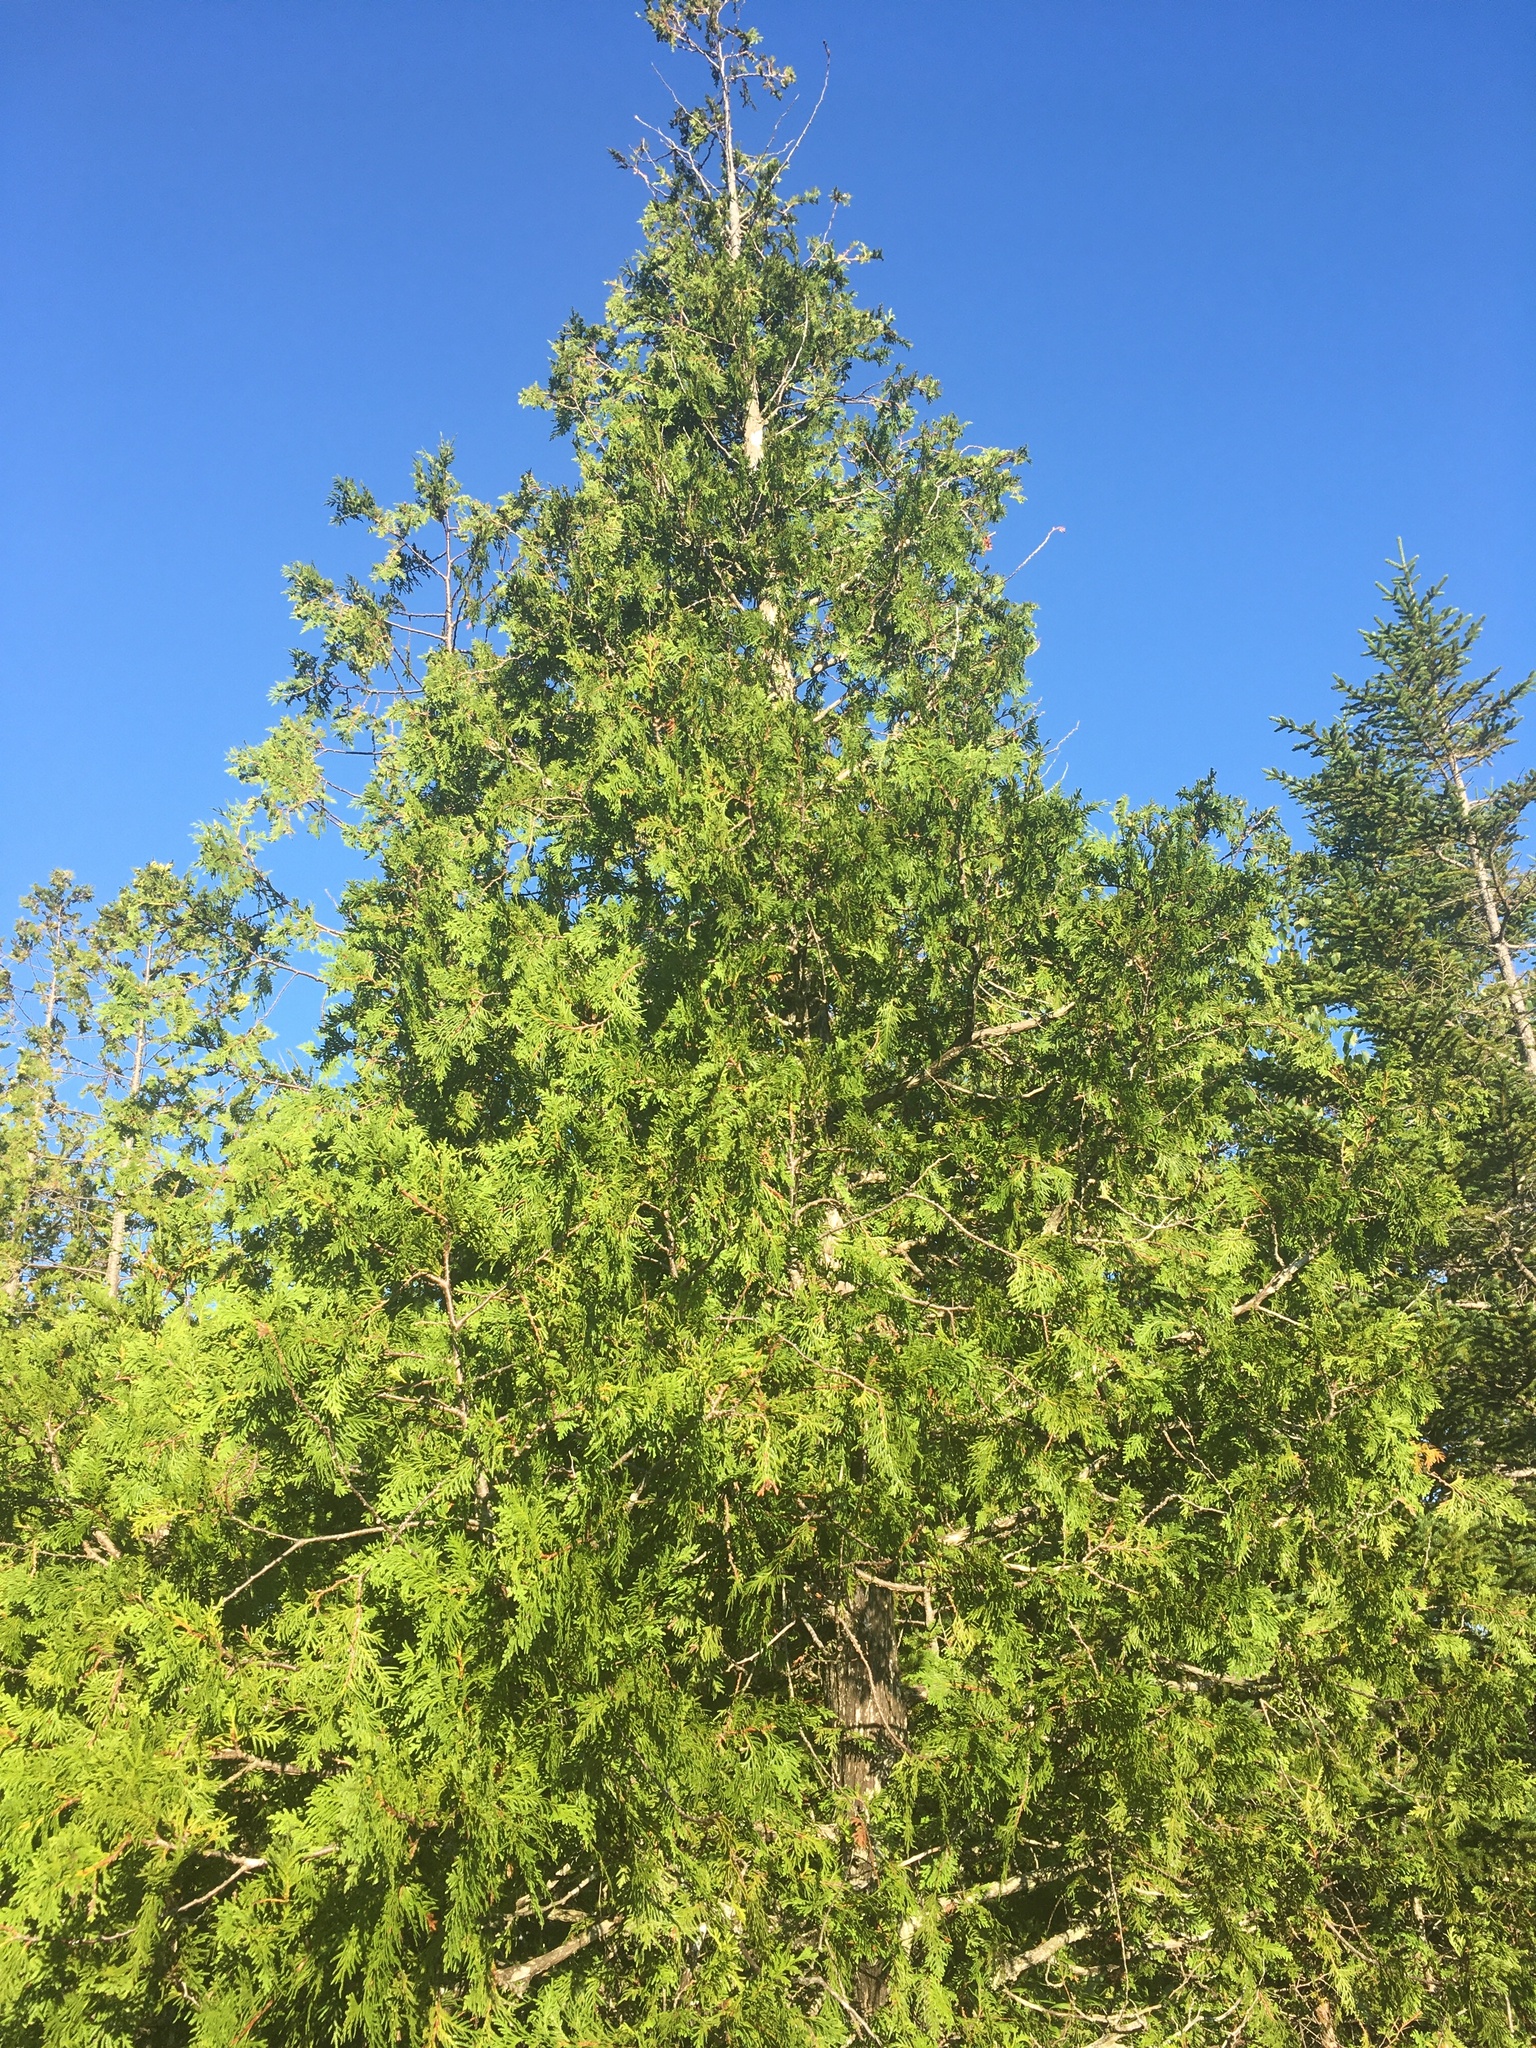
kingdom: Plantae
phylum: Tracheophyta
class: Pinopsida
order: Pinales
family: Cupressaceae
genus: Thuja
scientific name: Thuja occidentalis
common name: Northern white-cedar
